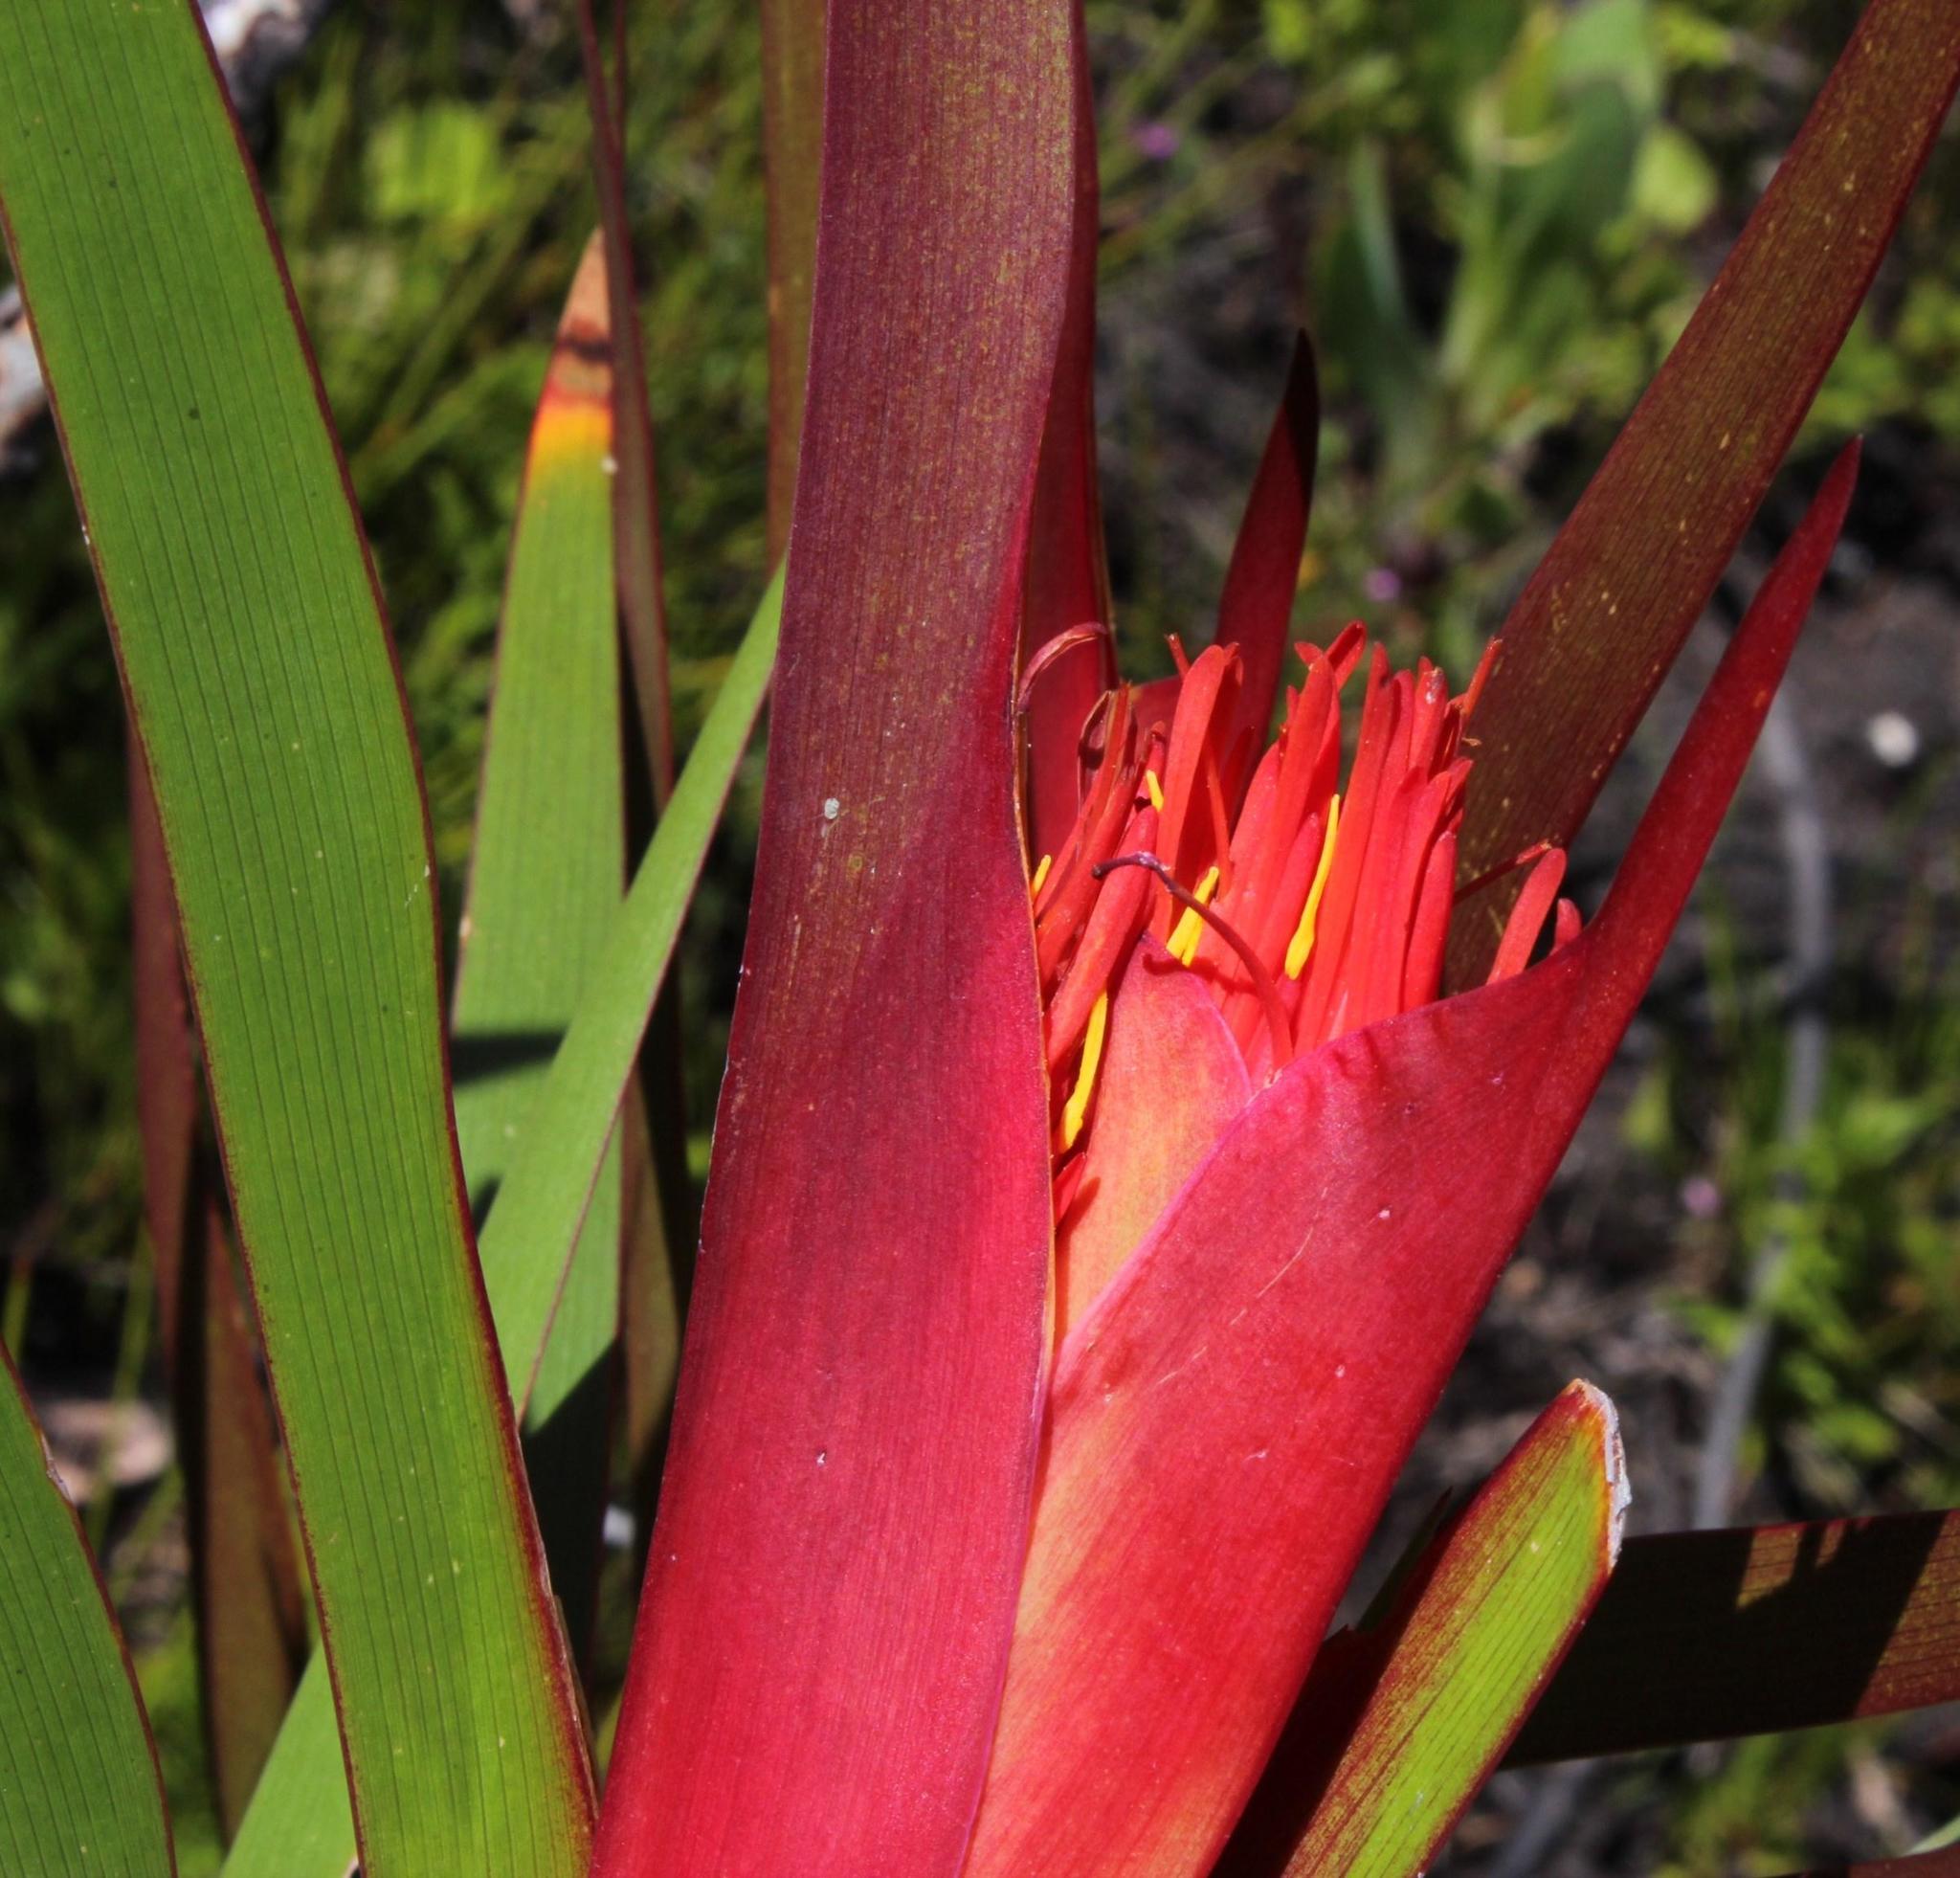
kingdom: Plantae
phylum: Tracheophyta
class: Liliopsida
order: Asparagales
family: Iridaceae
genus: Klattia
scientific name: Klattia stokoei
